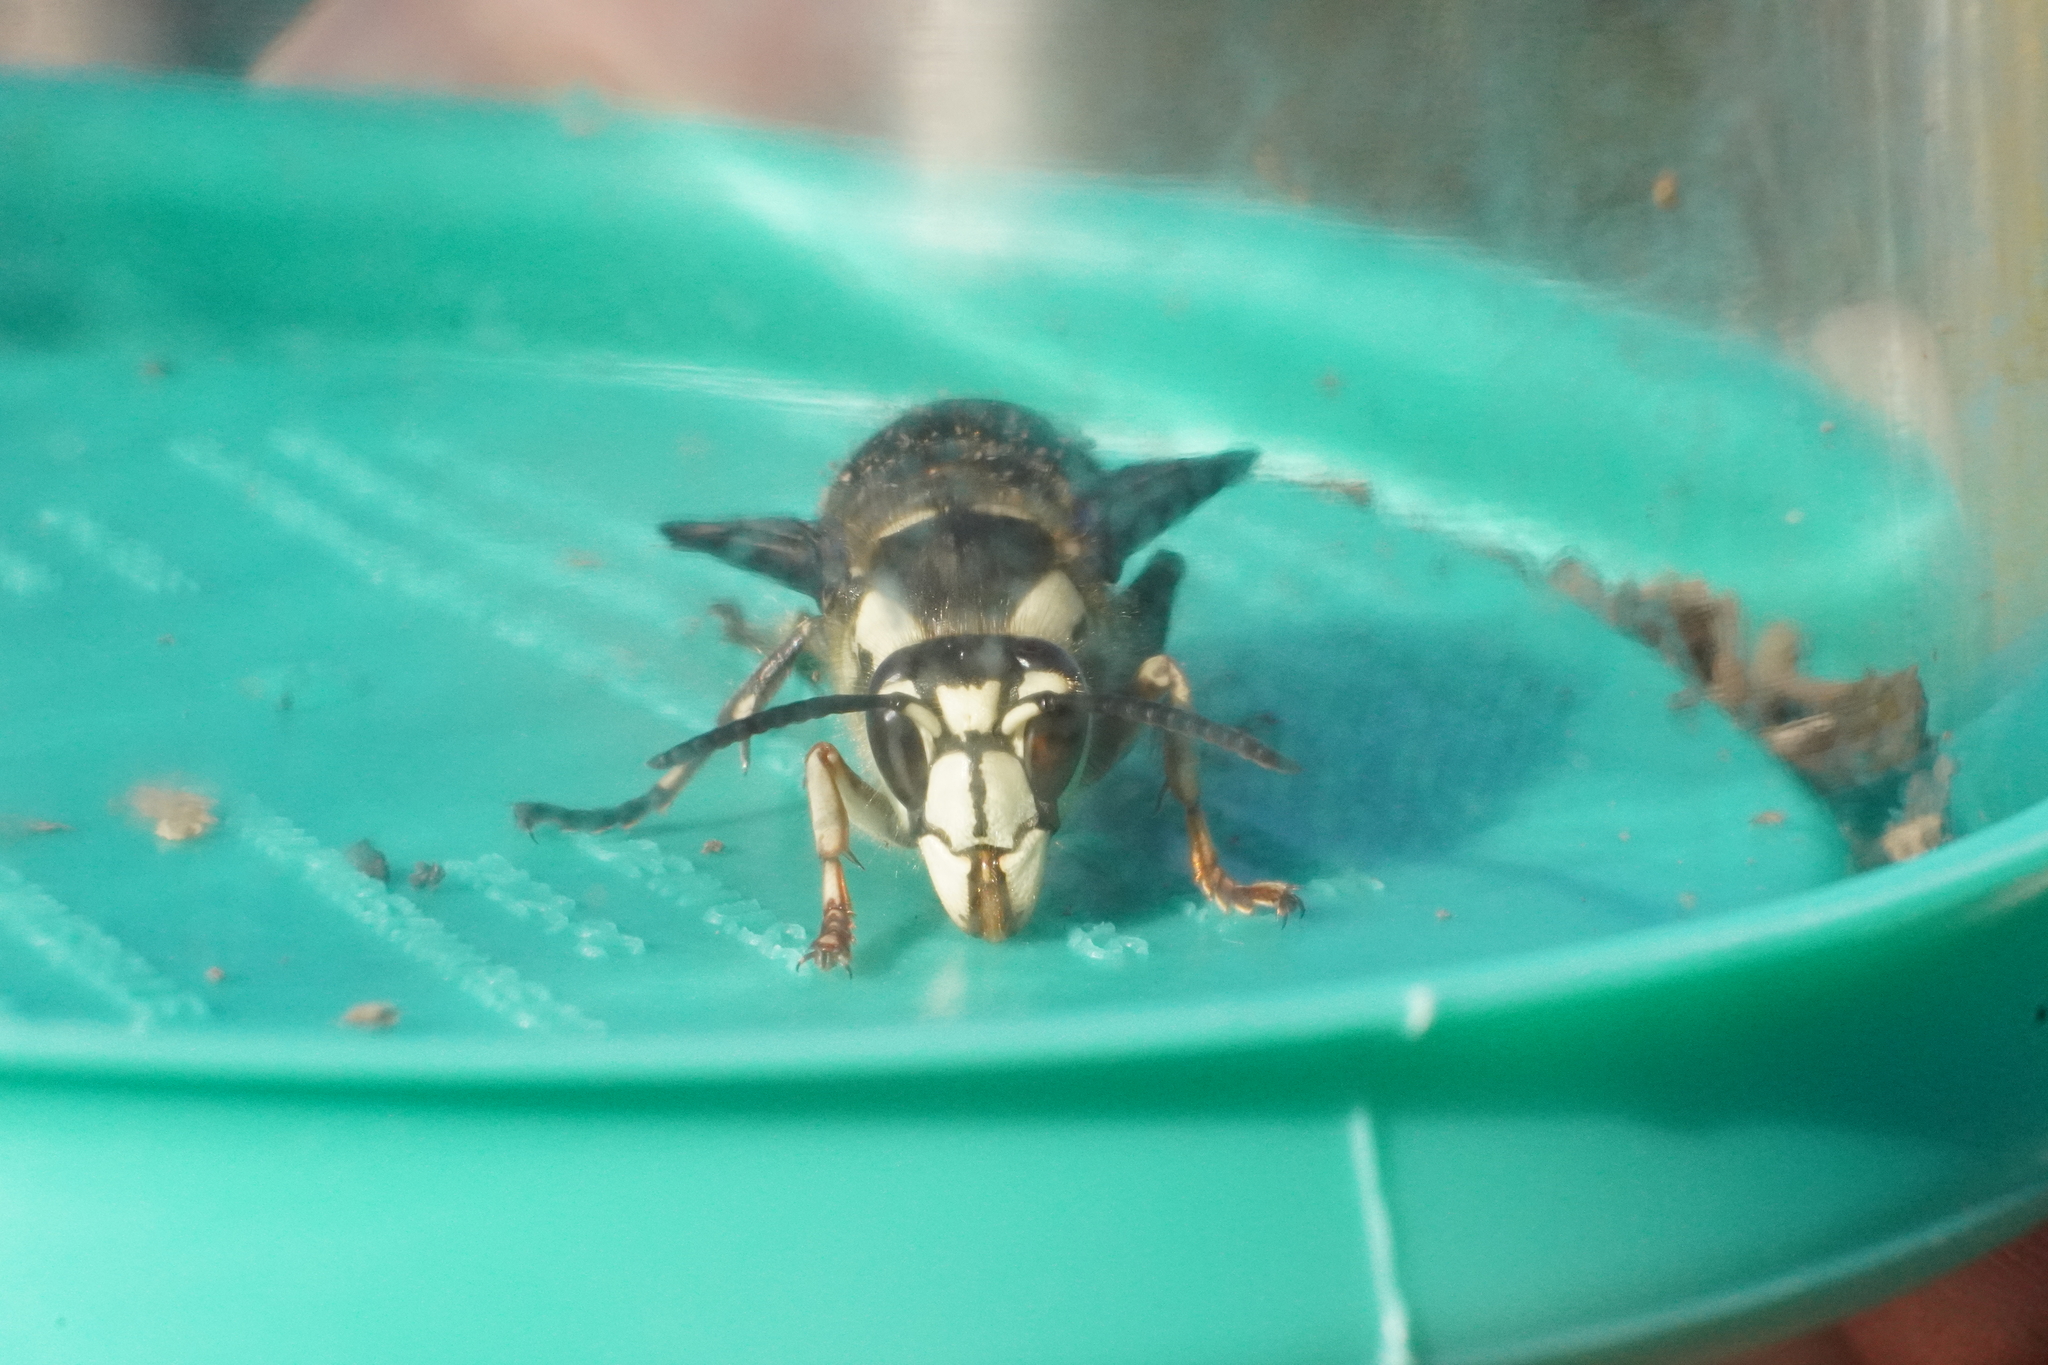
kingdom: Animalia
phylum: Arthropoda
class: Insecta
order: Hymenoptera
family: Vespidae
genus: Dolichovespula
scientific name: Dolichovespula maculata
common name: Bald-faced hornet
